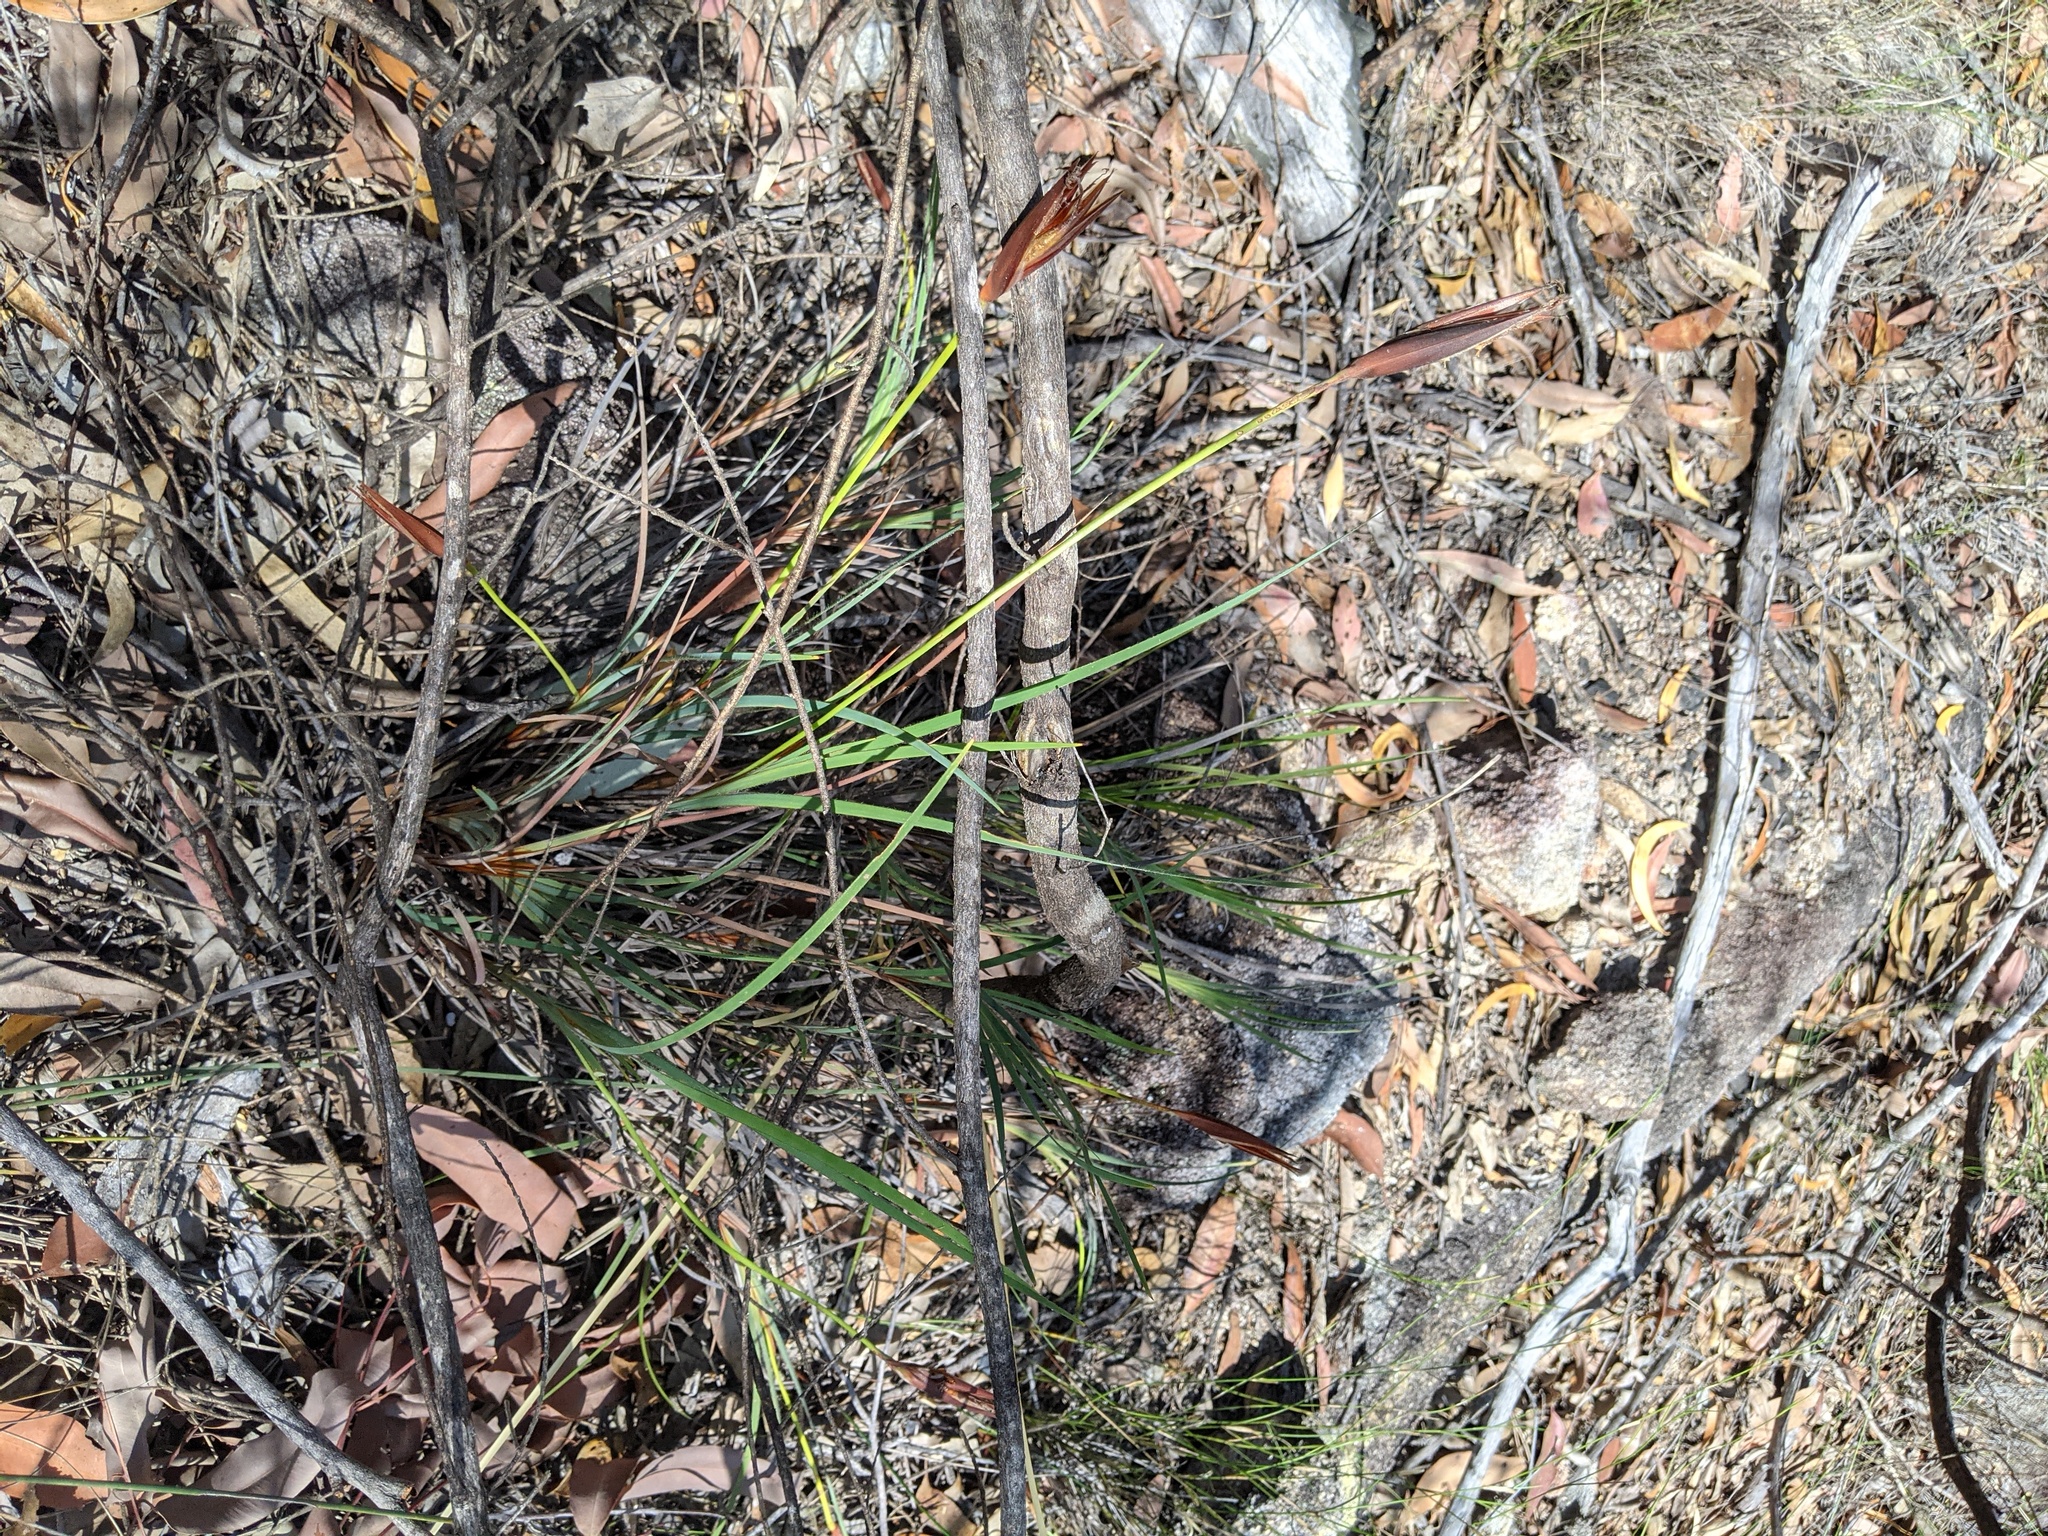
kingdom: Plantae
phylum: Tracheophyta
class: Liliopsida
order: Asparagales
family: Iridaceae
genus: Patersonia
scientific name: Patersonia glabrata
